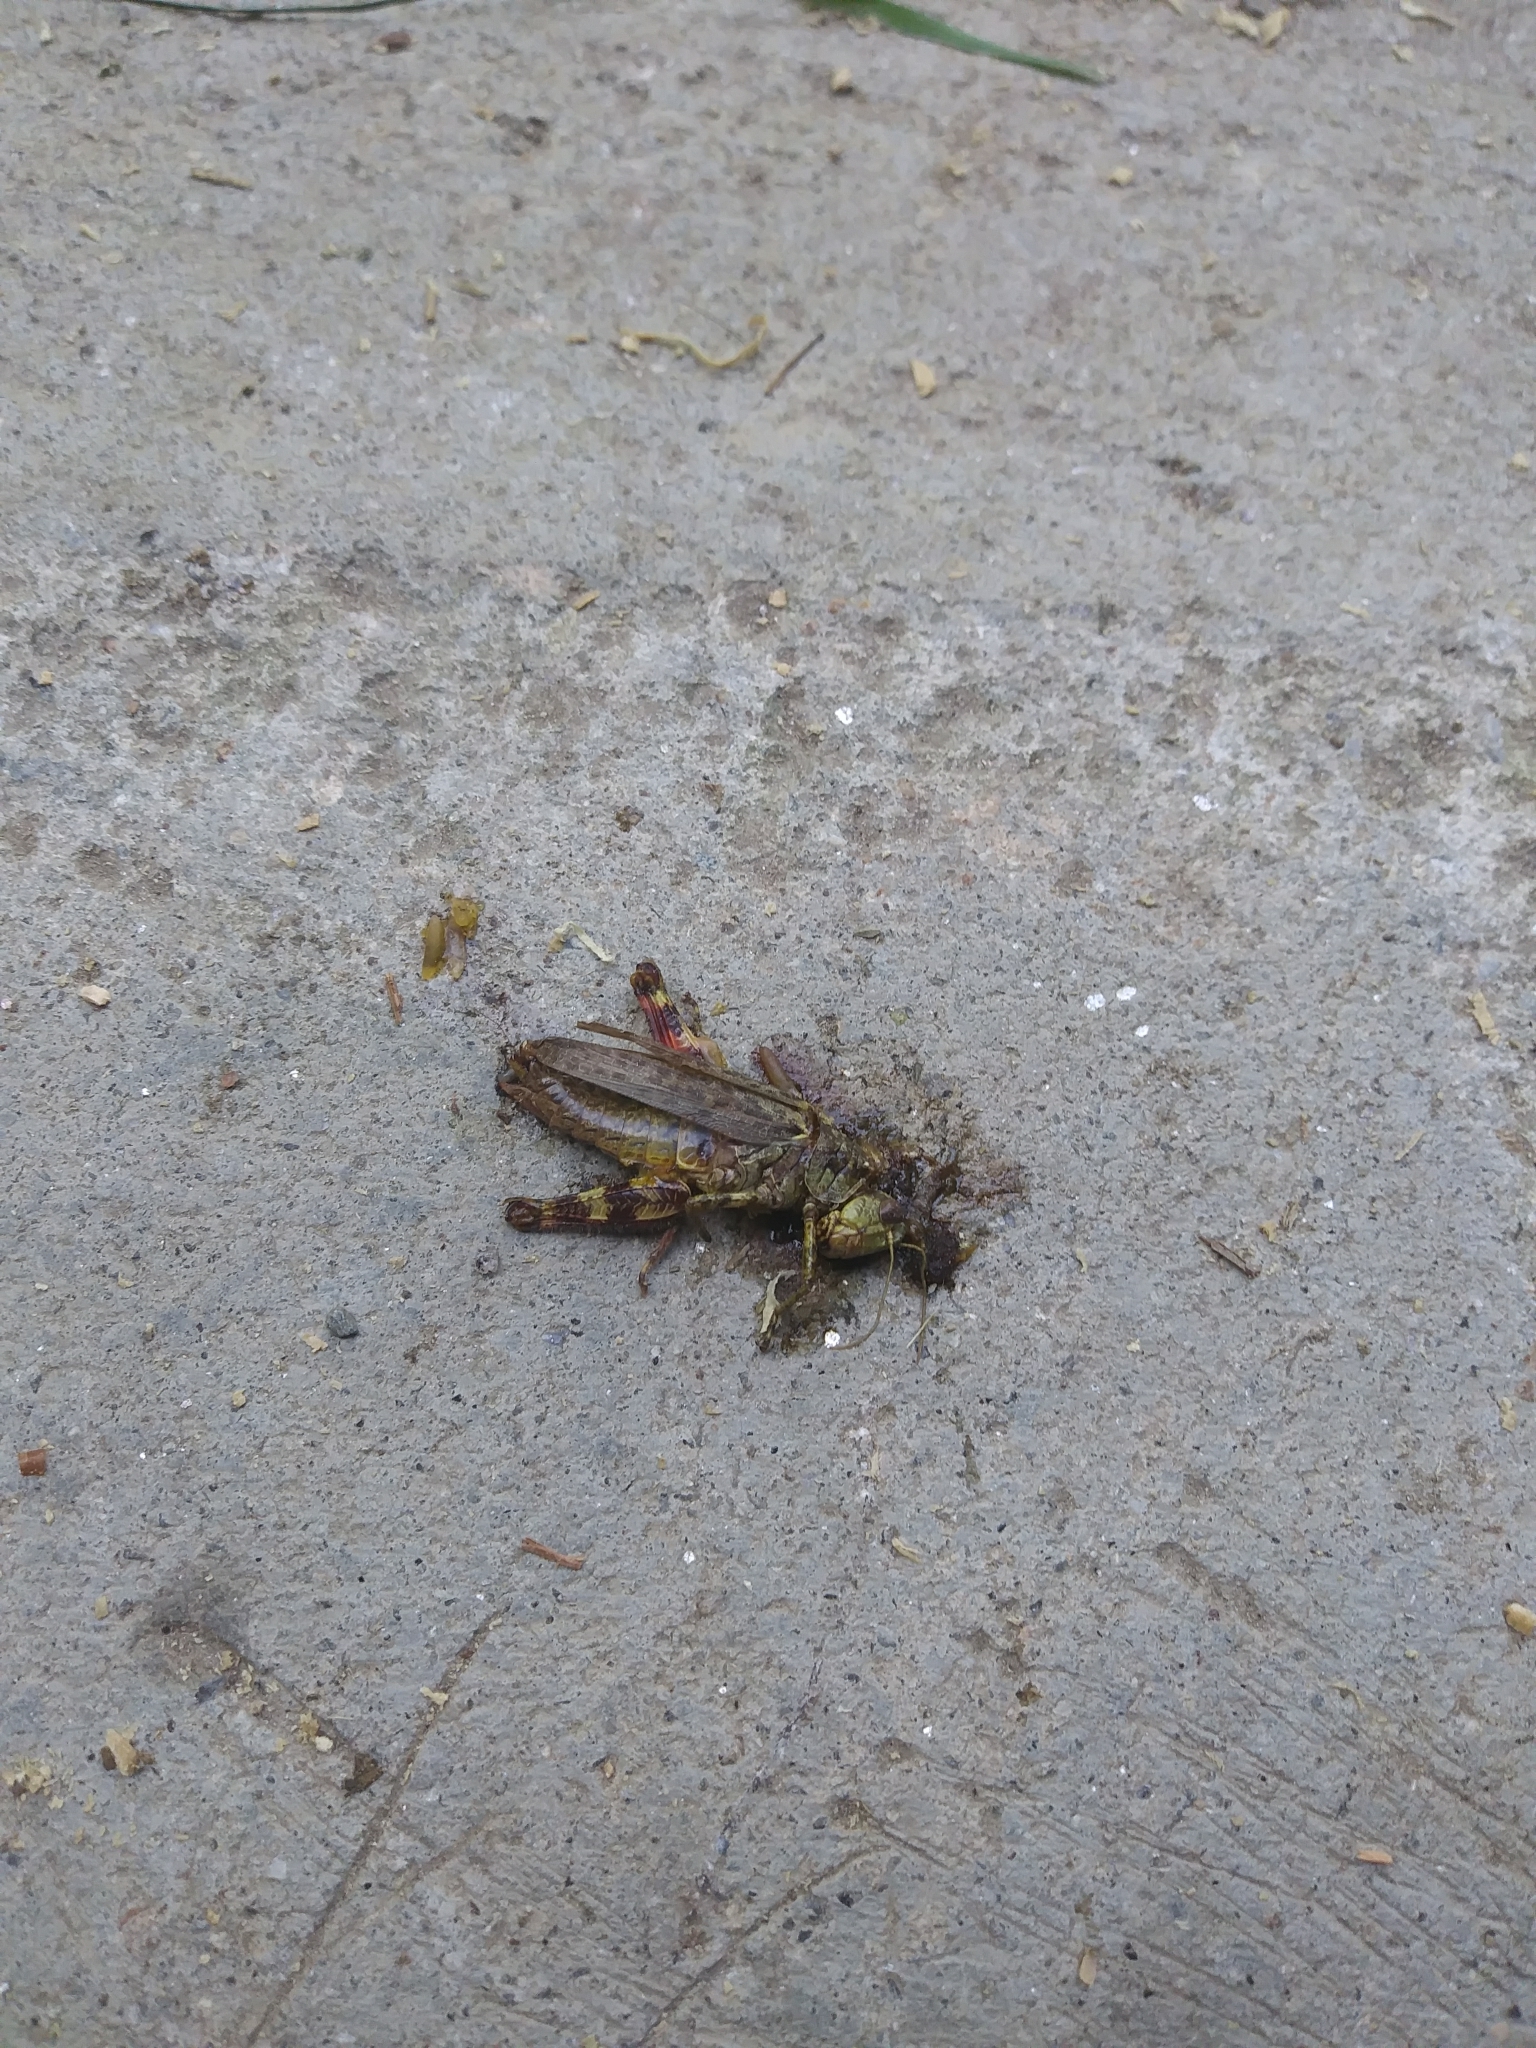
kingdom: Animalia
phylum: Arthropoda
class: Insecta
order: Orthoptera
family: Acrididae
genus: Melanoplus
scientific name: Melanoplus punctulatus
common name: Pine-tree spur-throat grasshopper
